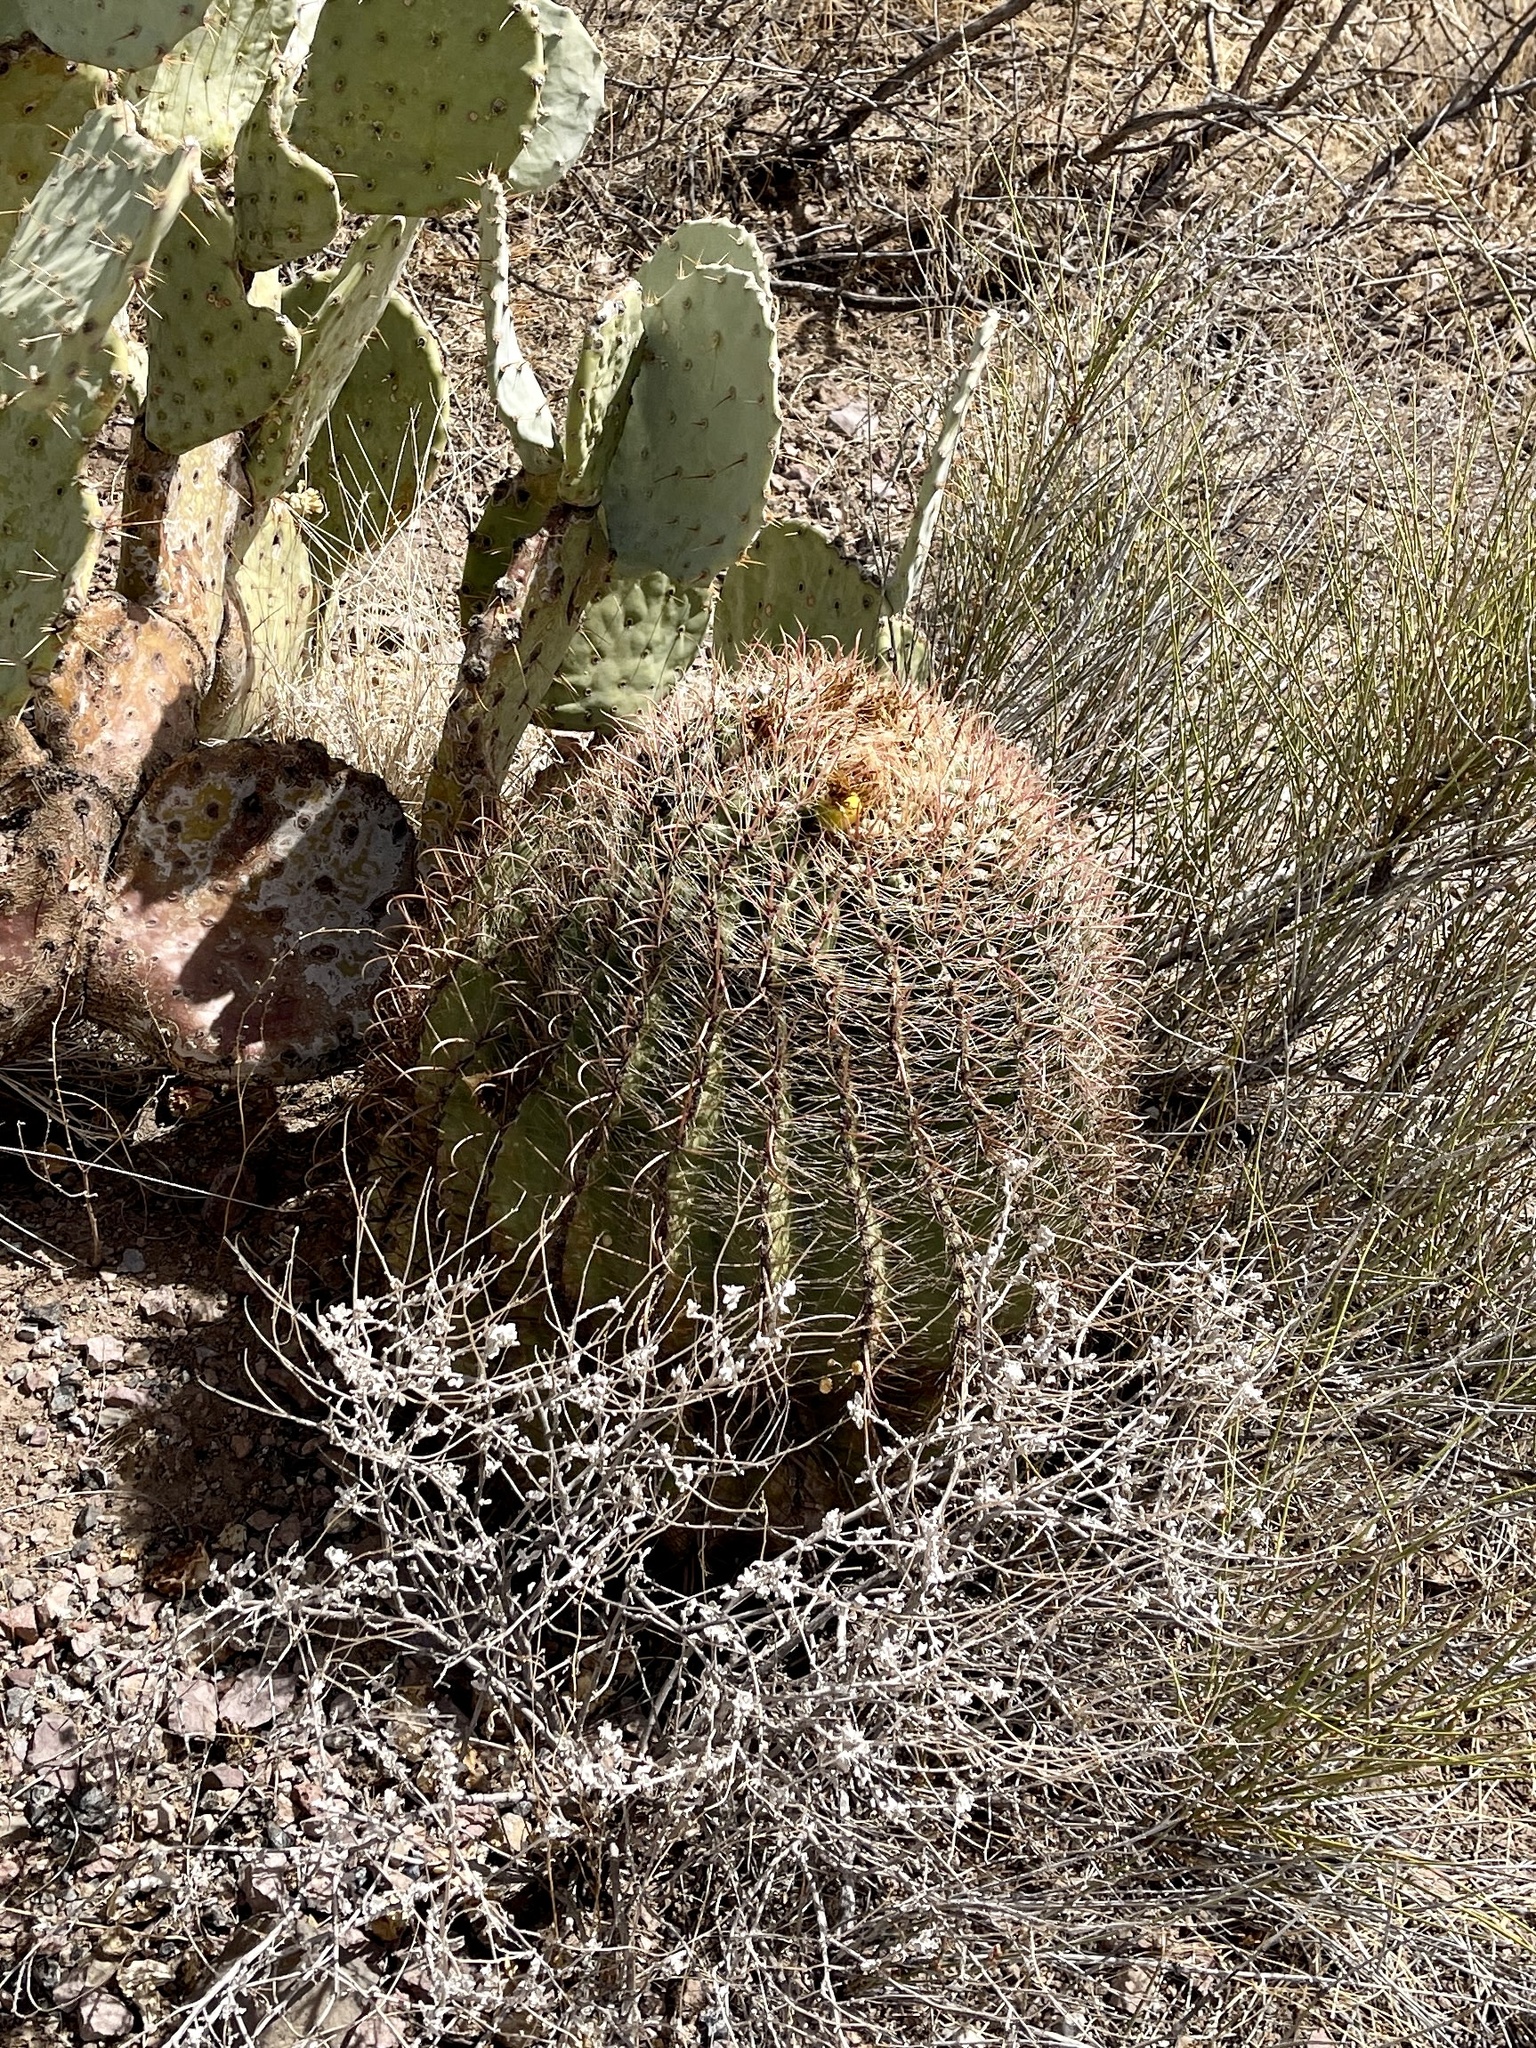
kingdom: Plantae
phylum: Tracheophyta
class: Magnoliopsida
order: Caryophyllales
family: Cactaceae
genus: Ferocactus
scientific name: Ferocactus wislizeni
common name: Candy barrel cactus
